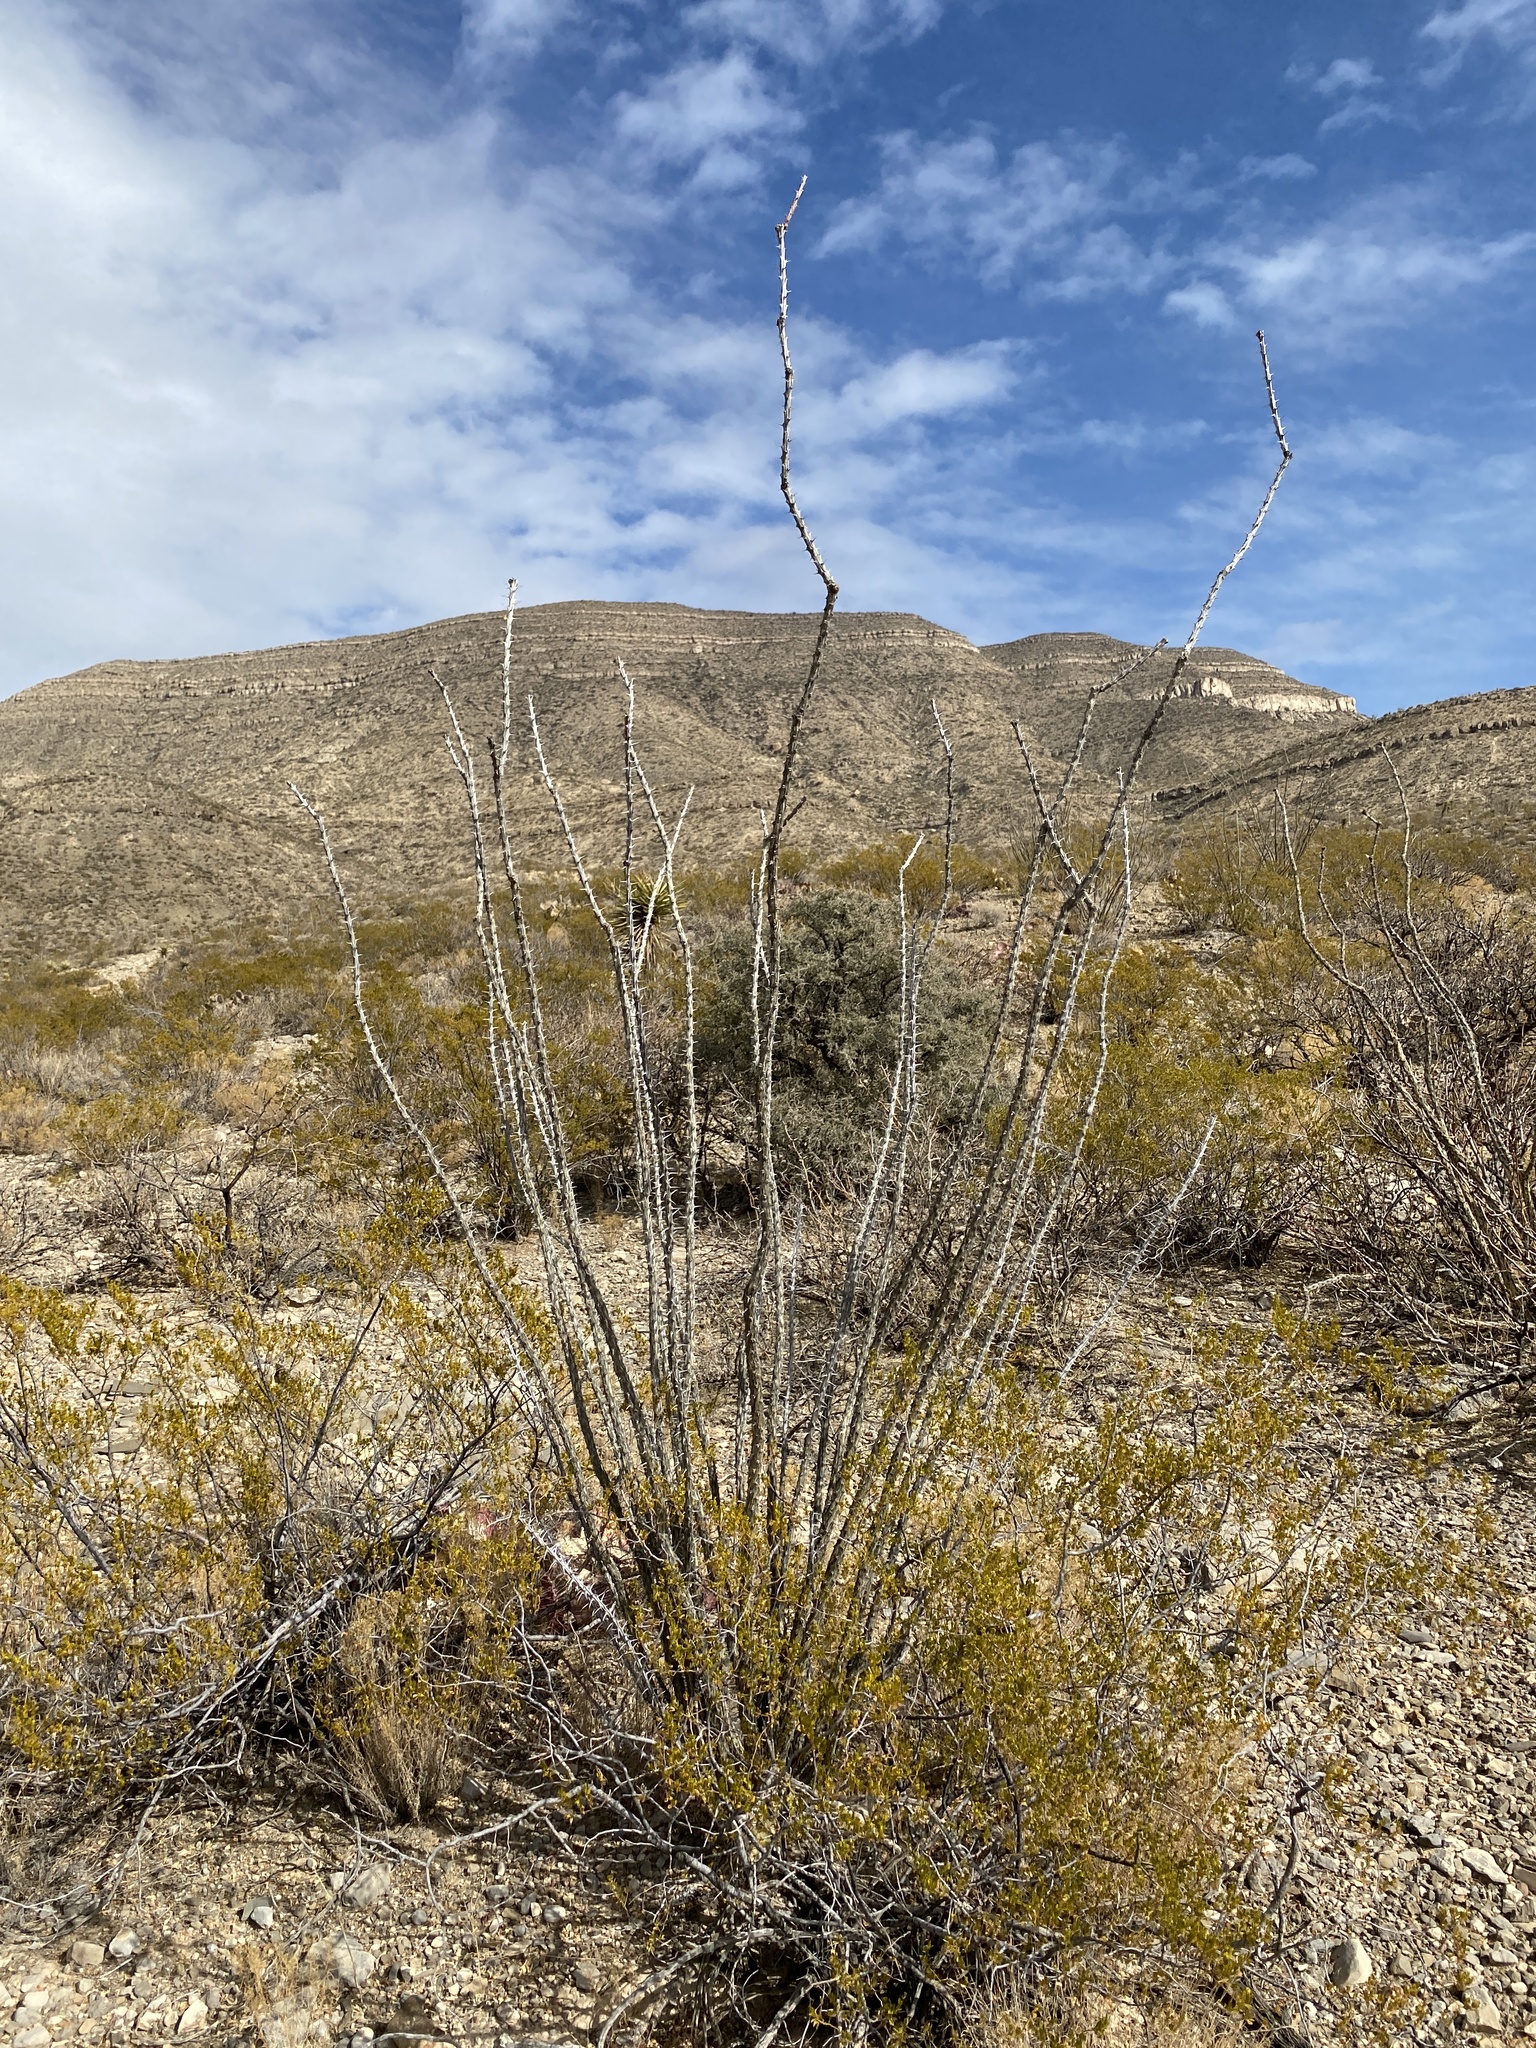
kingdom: Plantae
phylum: Tracheophyta
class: Magnoliopsida
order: Ericales
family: Fouquieriaceae
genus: Fouquieria
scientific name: Fouquieria splendens
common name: Vine-cactus
